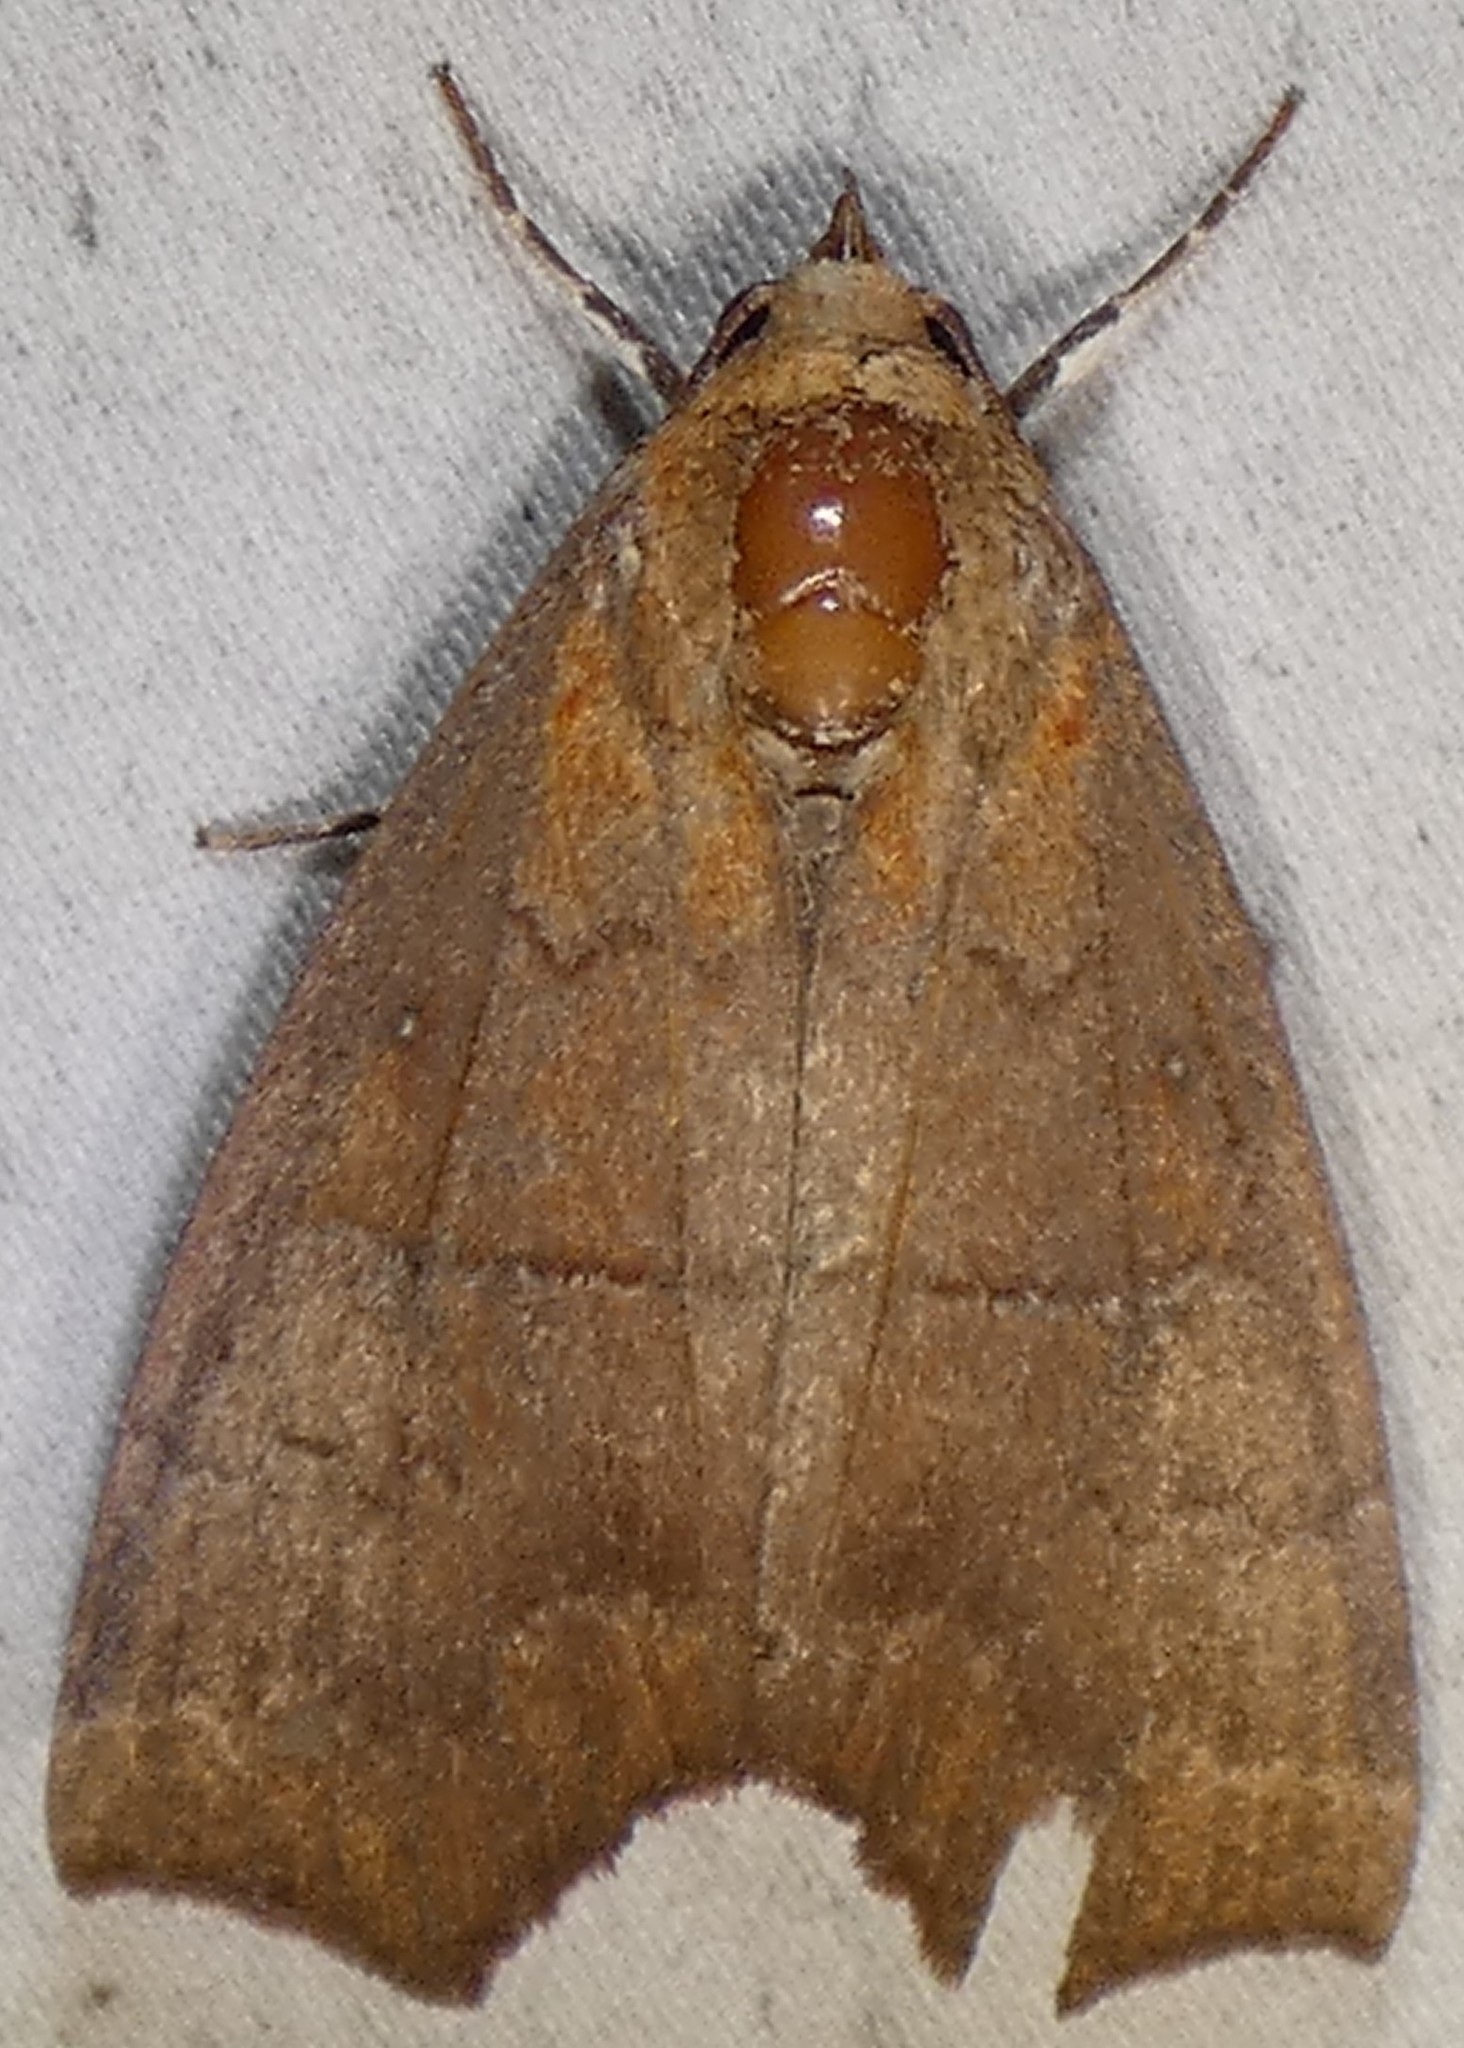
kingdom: Animalia
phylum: Arthropoda
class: Insecta
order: Lepidoptera
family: Erebidae
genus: Rusicada
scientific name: Rusicada privata
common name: Hibiscus leaf caterpillar moth
